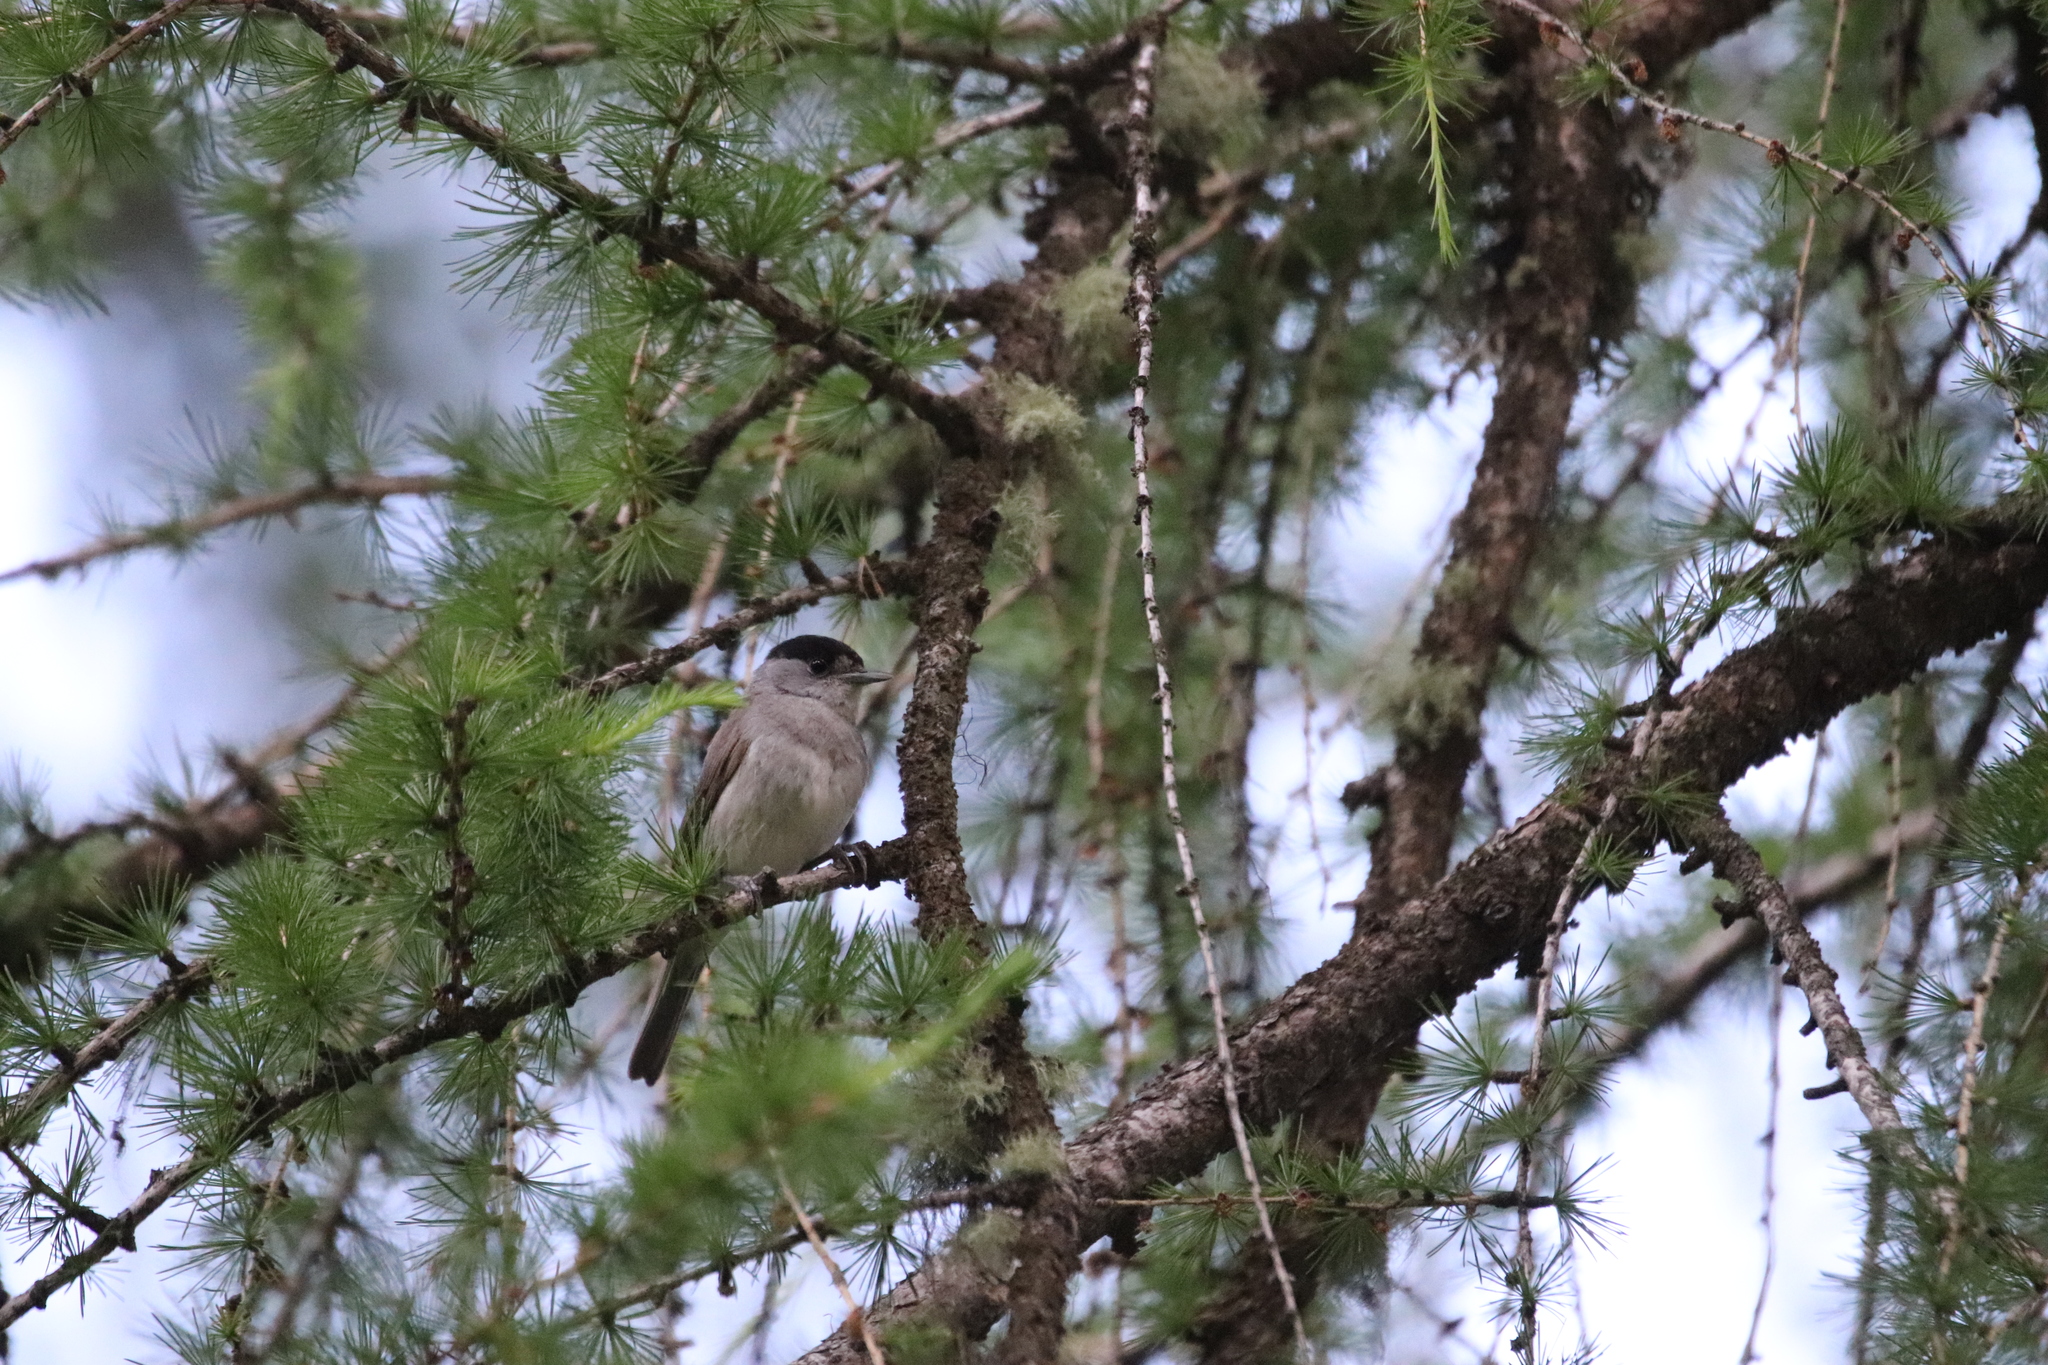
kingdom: Animalia
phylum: Chordata
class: Aves
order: Passeriformes
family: Sylviidae
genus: Sylvia
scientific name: Sylvia atricapilla
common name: Eurasian blackcap
